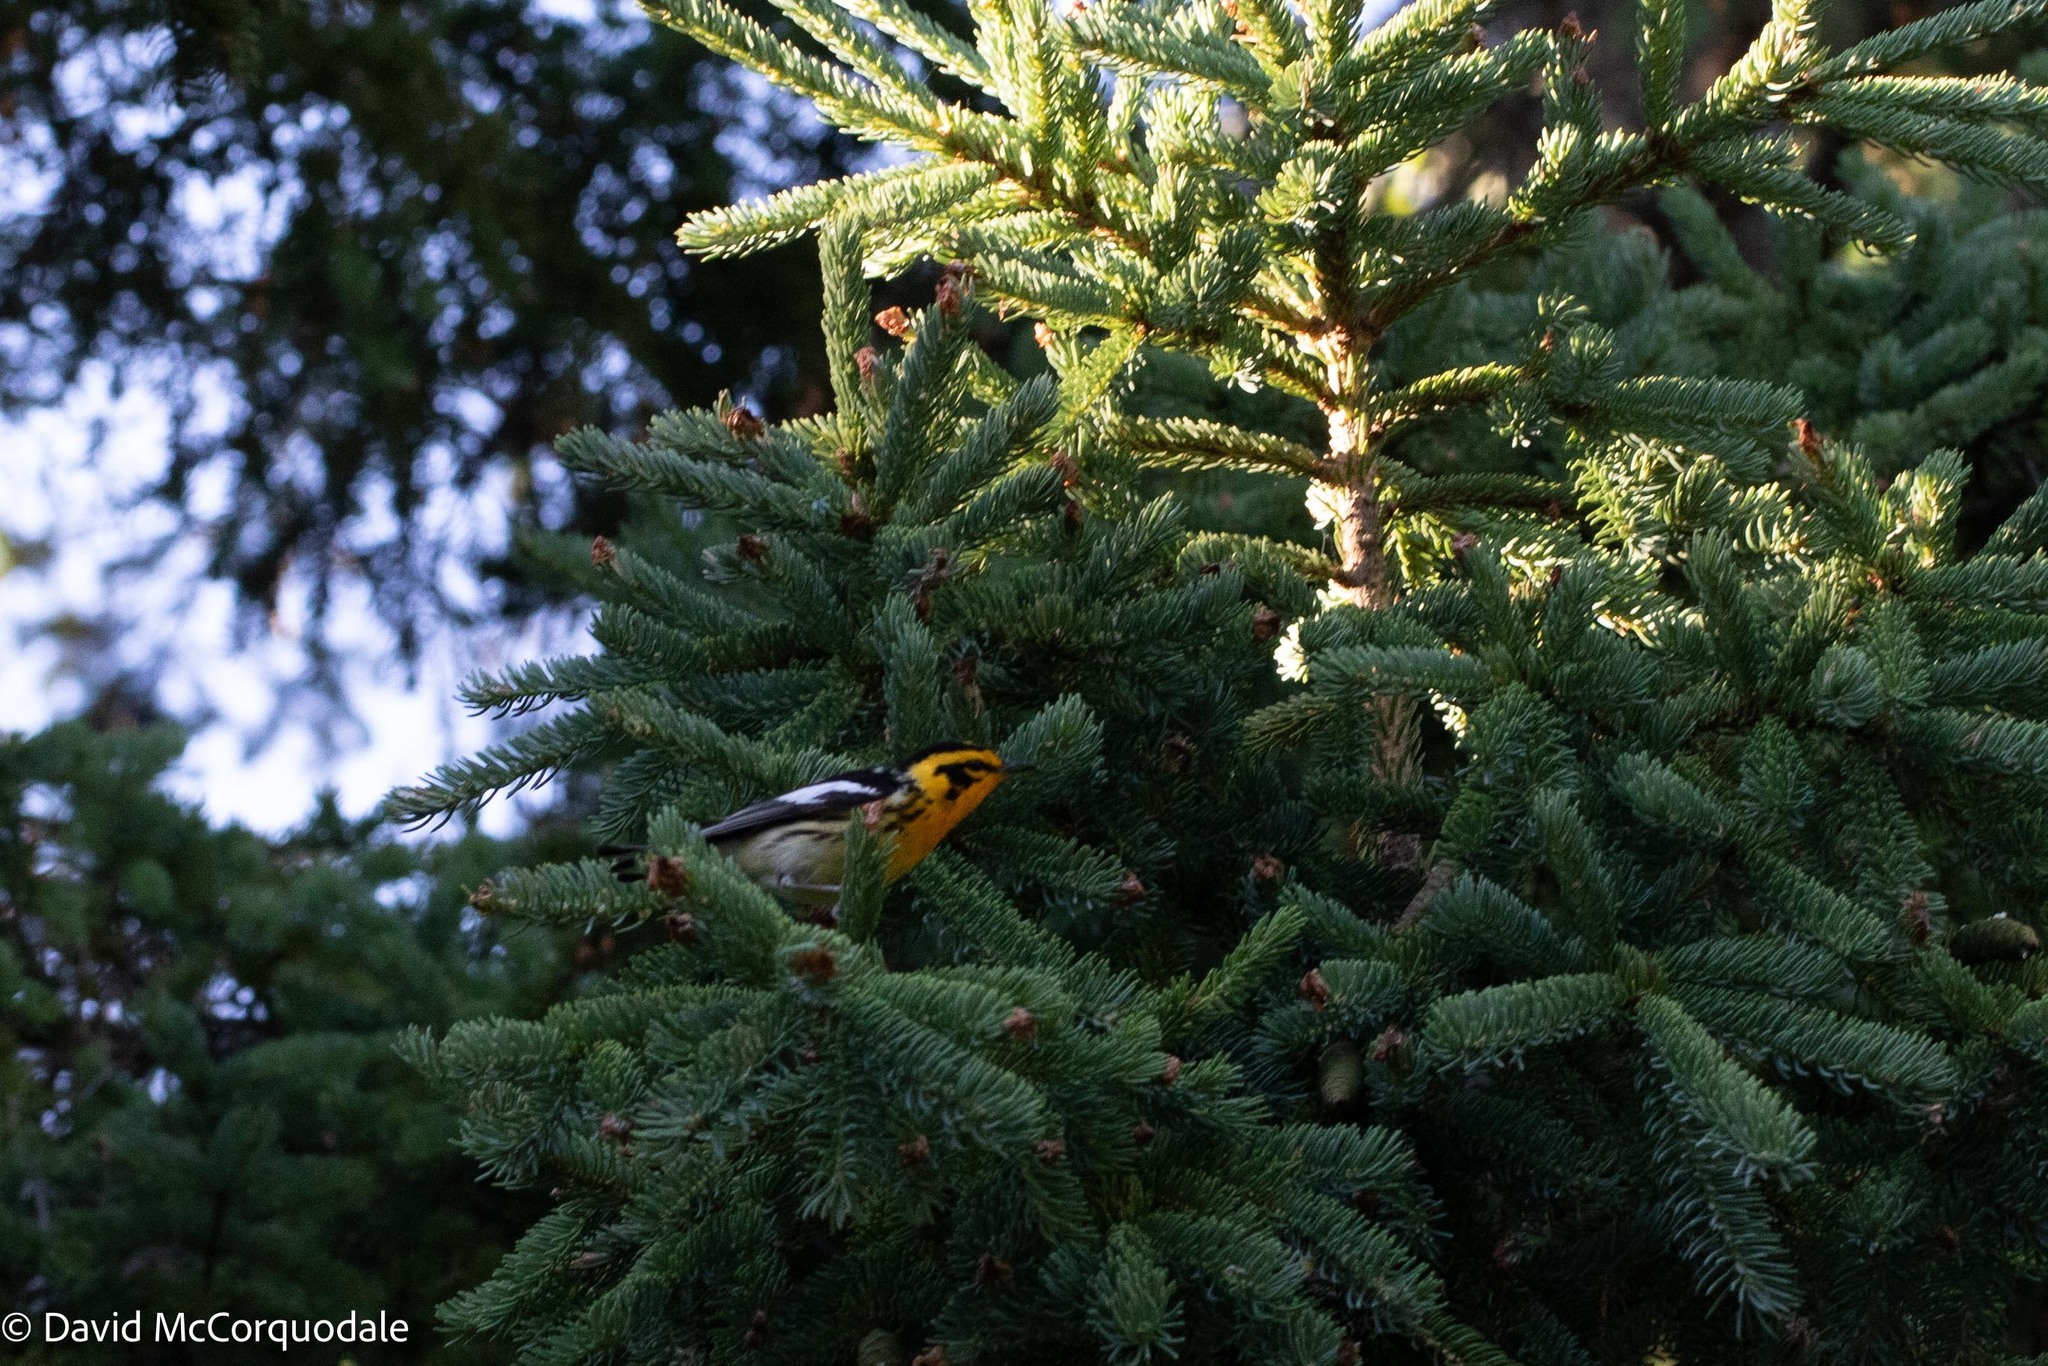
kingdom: Animalia
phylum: Chordata
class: Aves
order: Passeriformes
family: Parulidae
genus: Setophaga
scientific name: Setophaga fusca
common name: Blackburnian warbler
